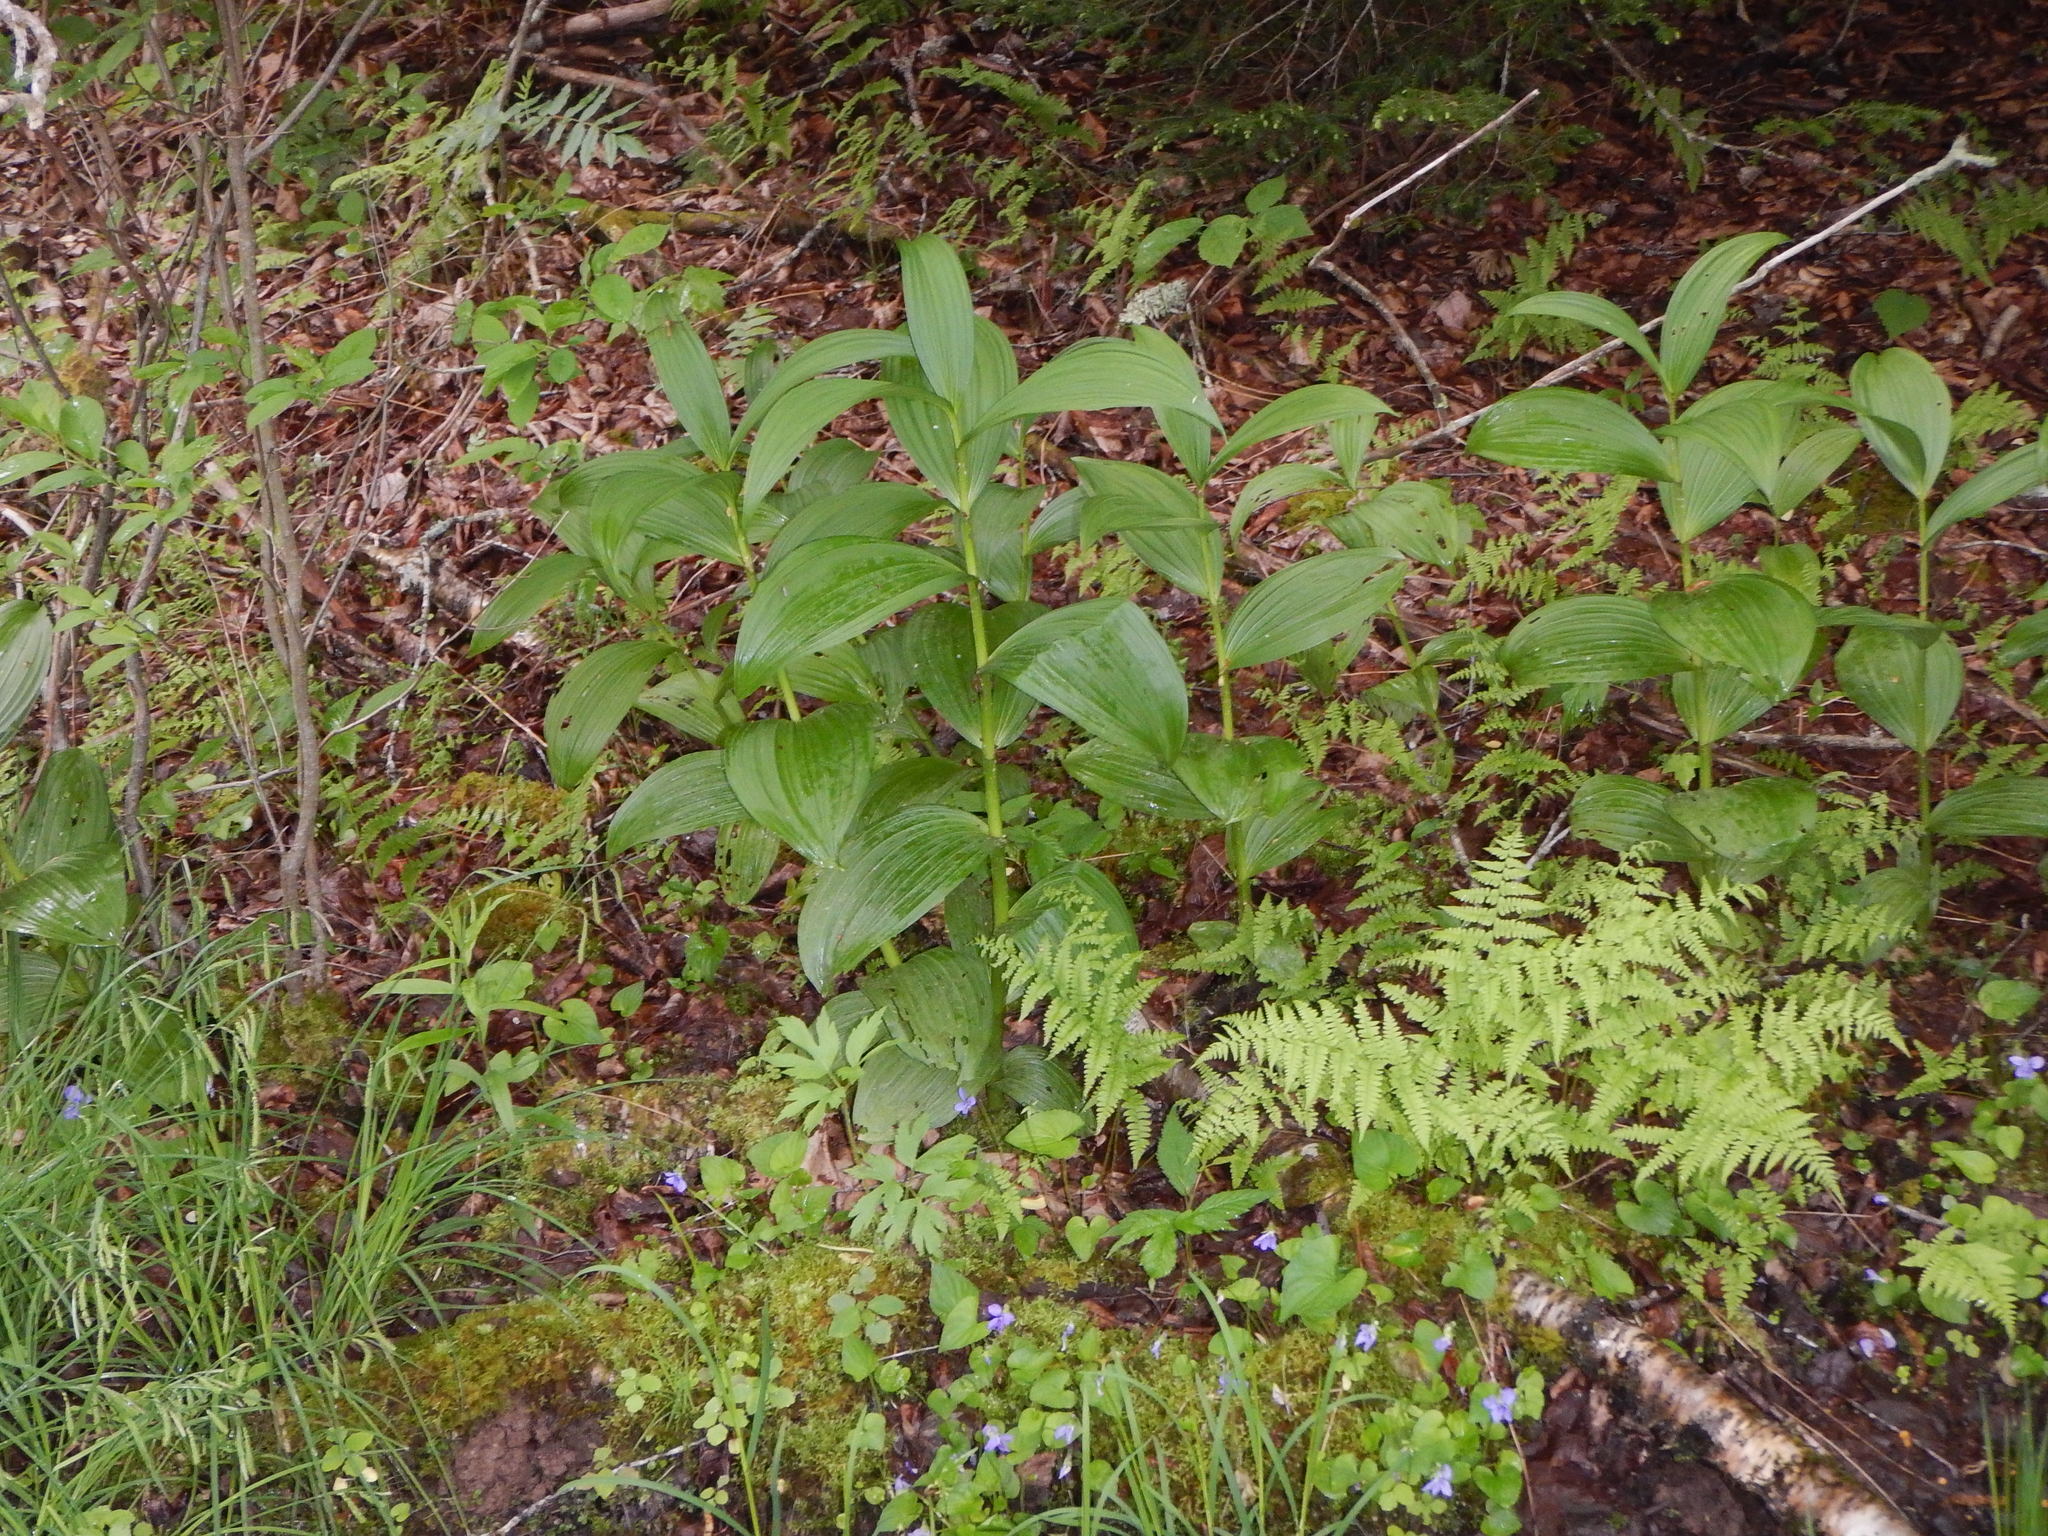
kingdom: Plantae
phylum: Tracheophyta
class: Liliopsida
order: Liliales
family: Melanthiaceae
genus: Veratrum
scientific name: Veratrum viride
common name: American false hellebore
